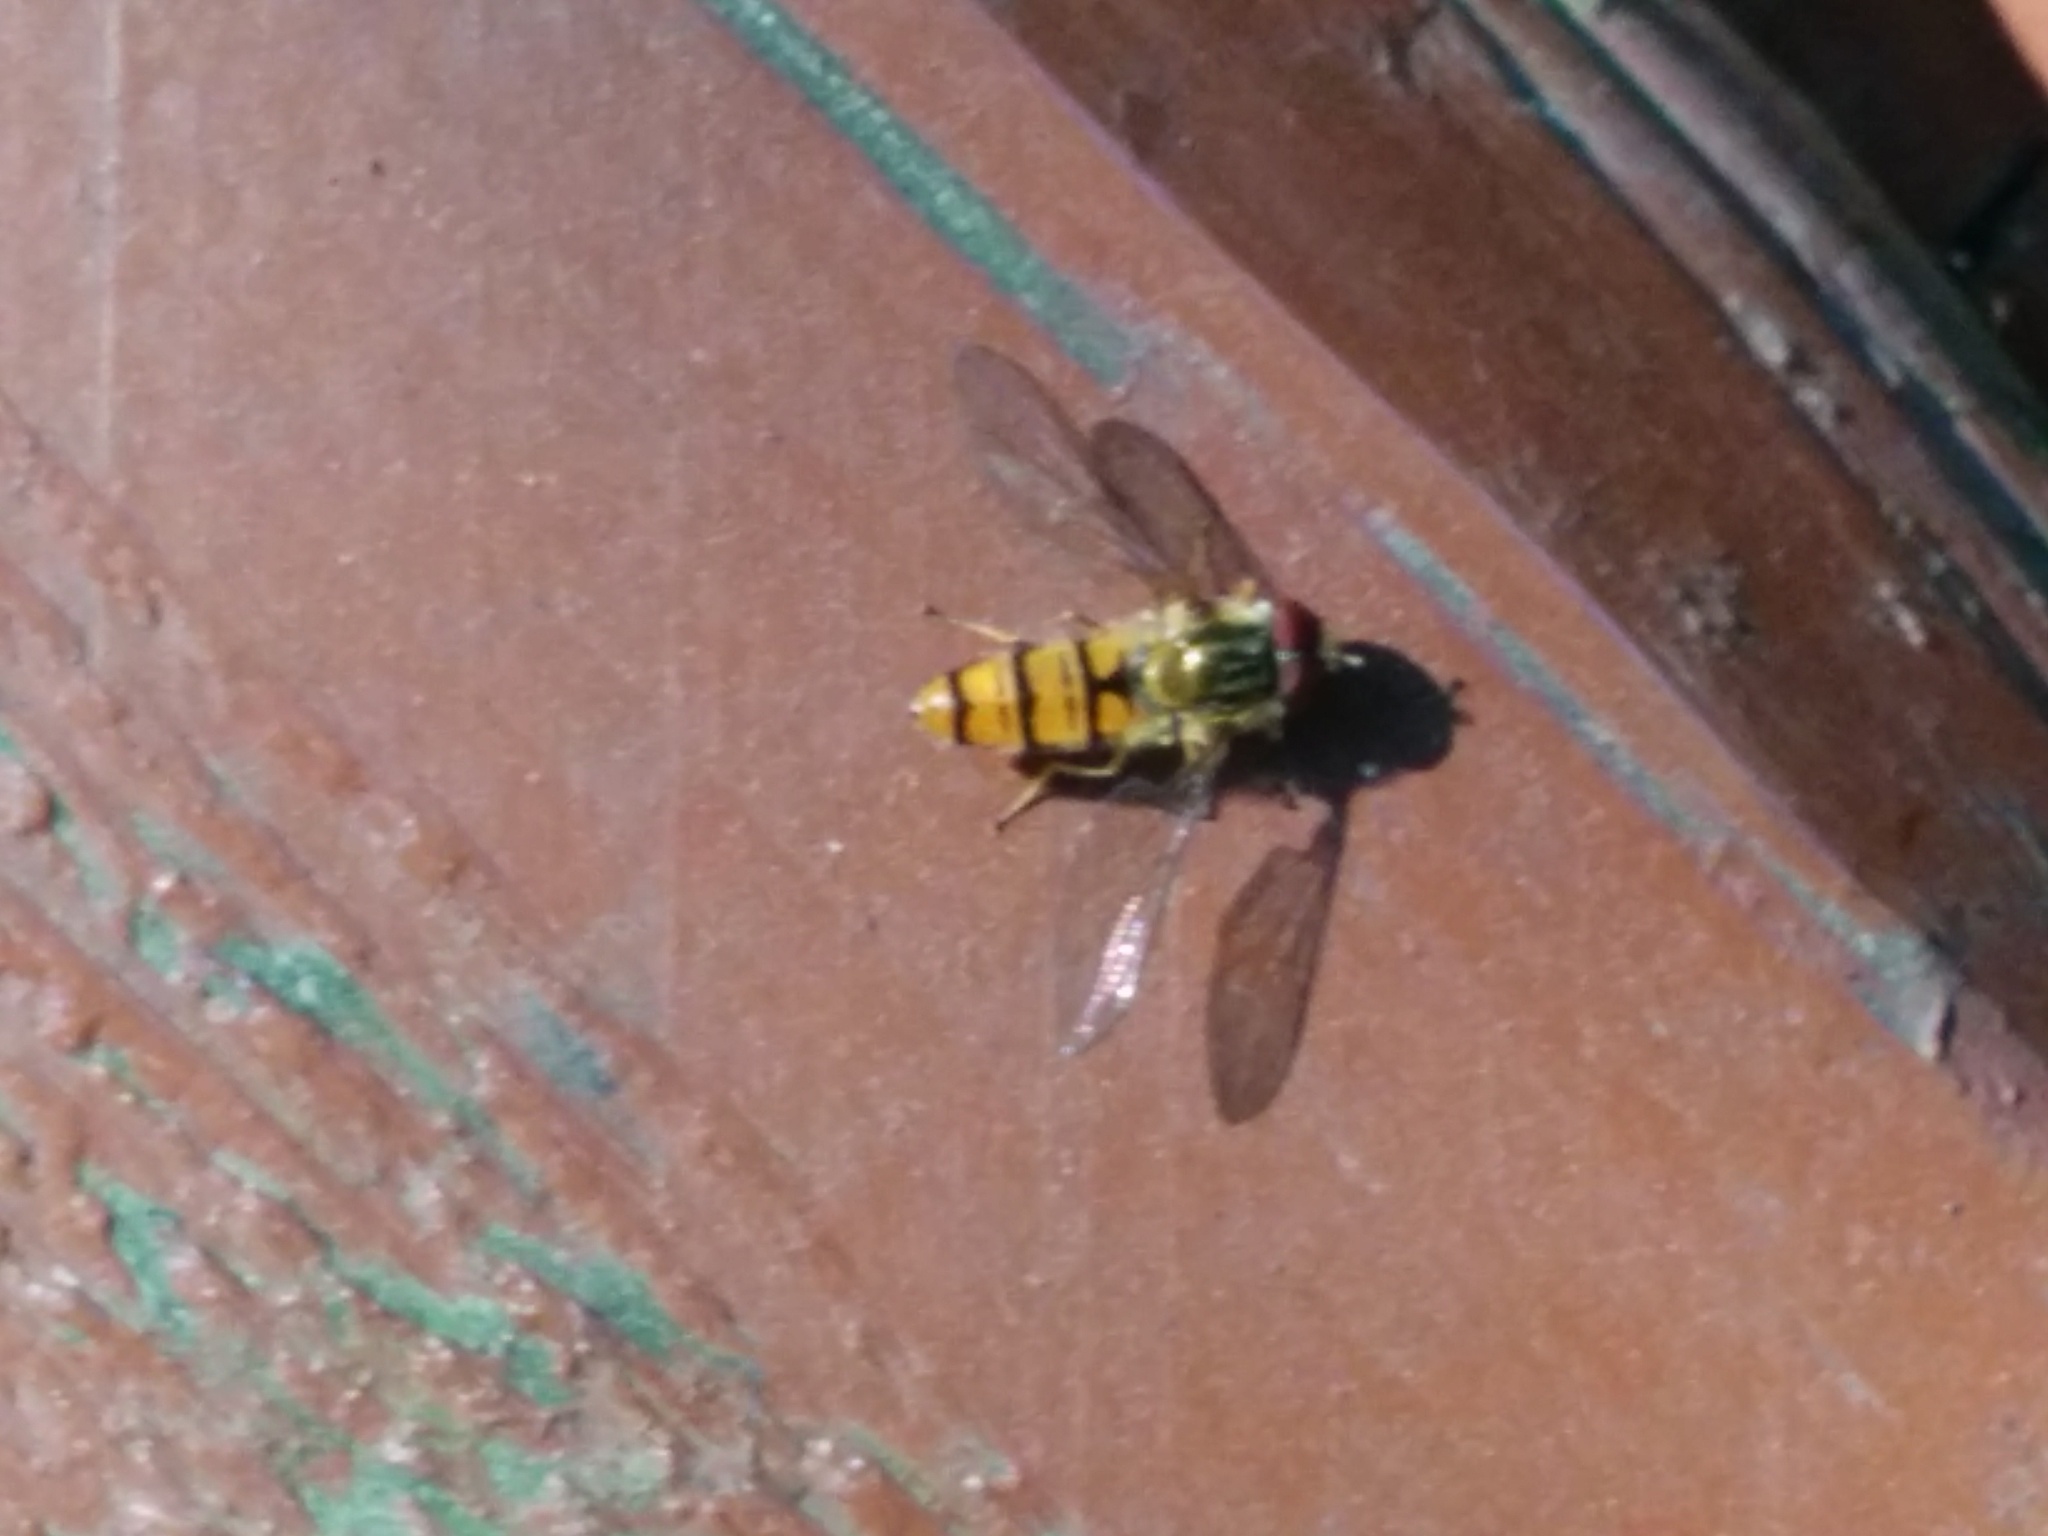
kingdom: Animalia
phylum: Arthropoda
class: Insecta
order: Diptera
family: Syrphidae
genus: Episyrphus
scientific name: Episyrphus balteatus
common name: Marmalade hoverfly
